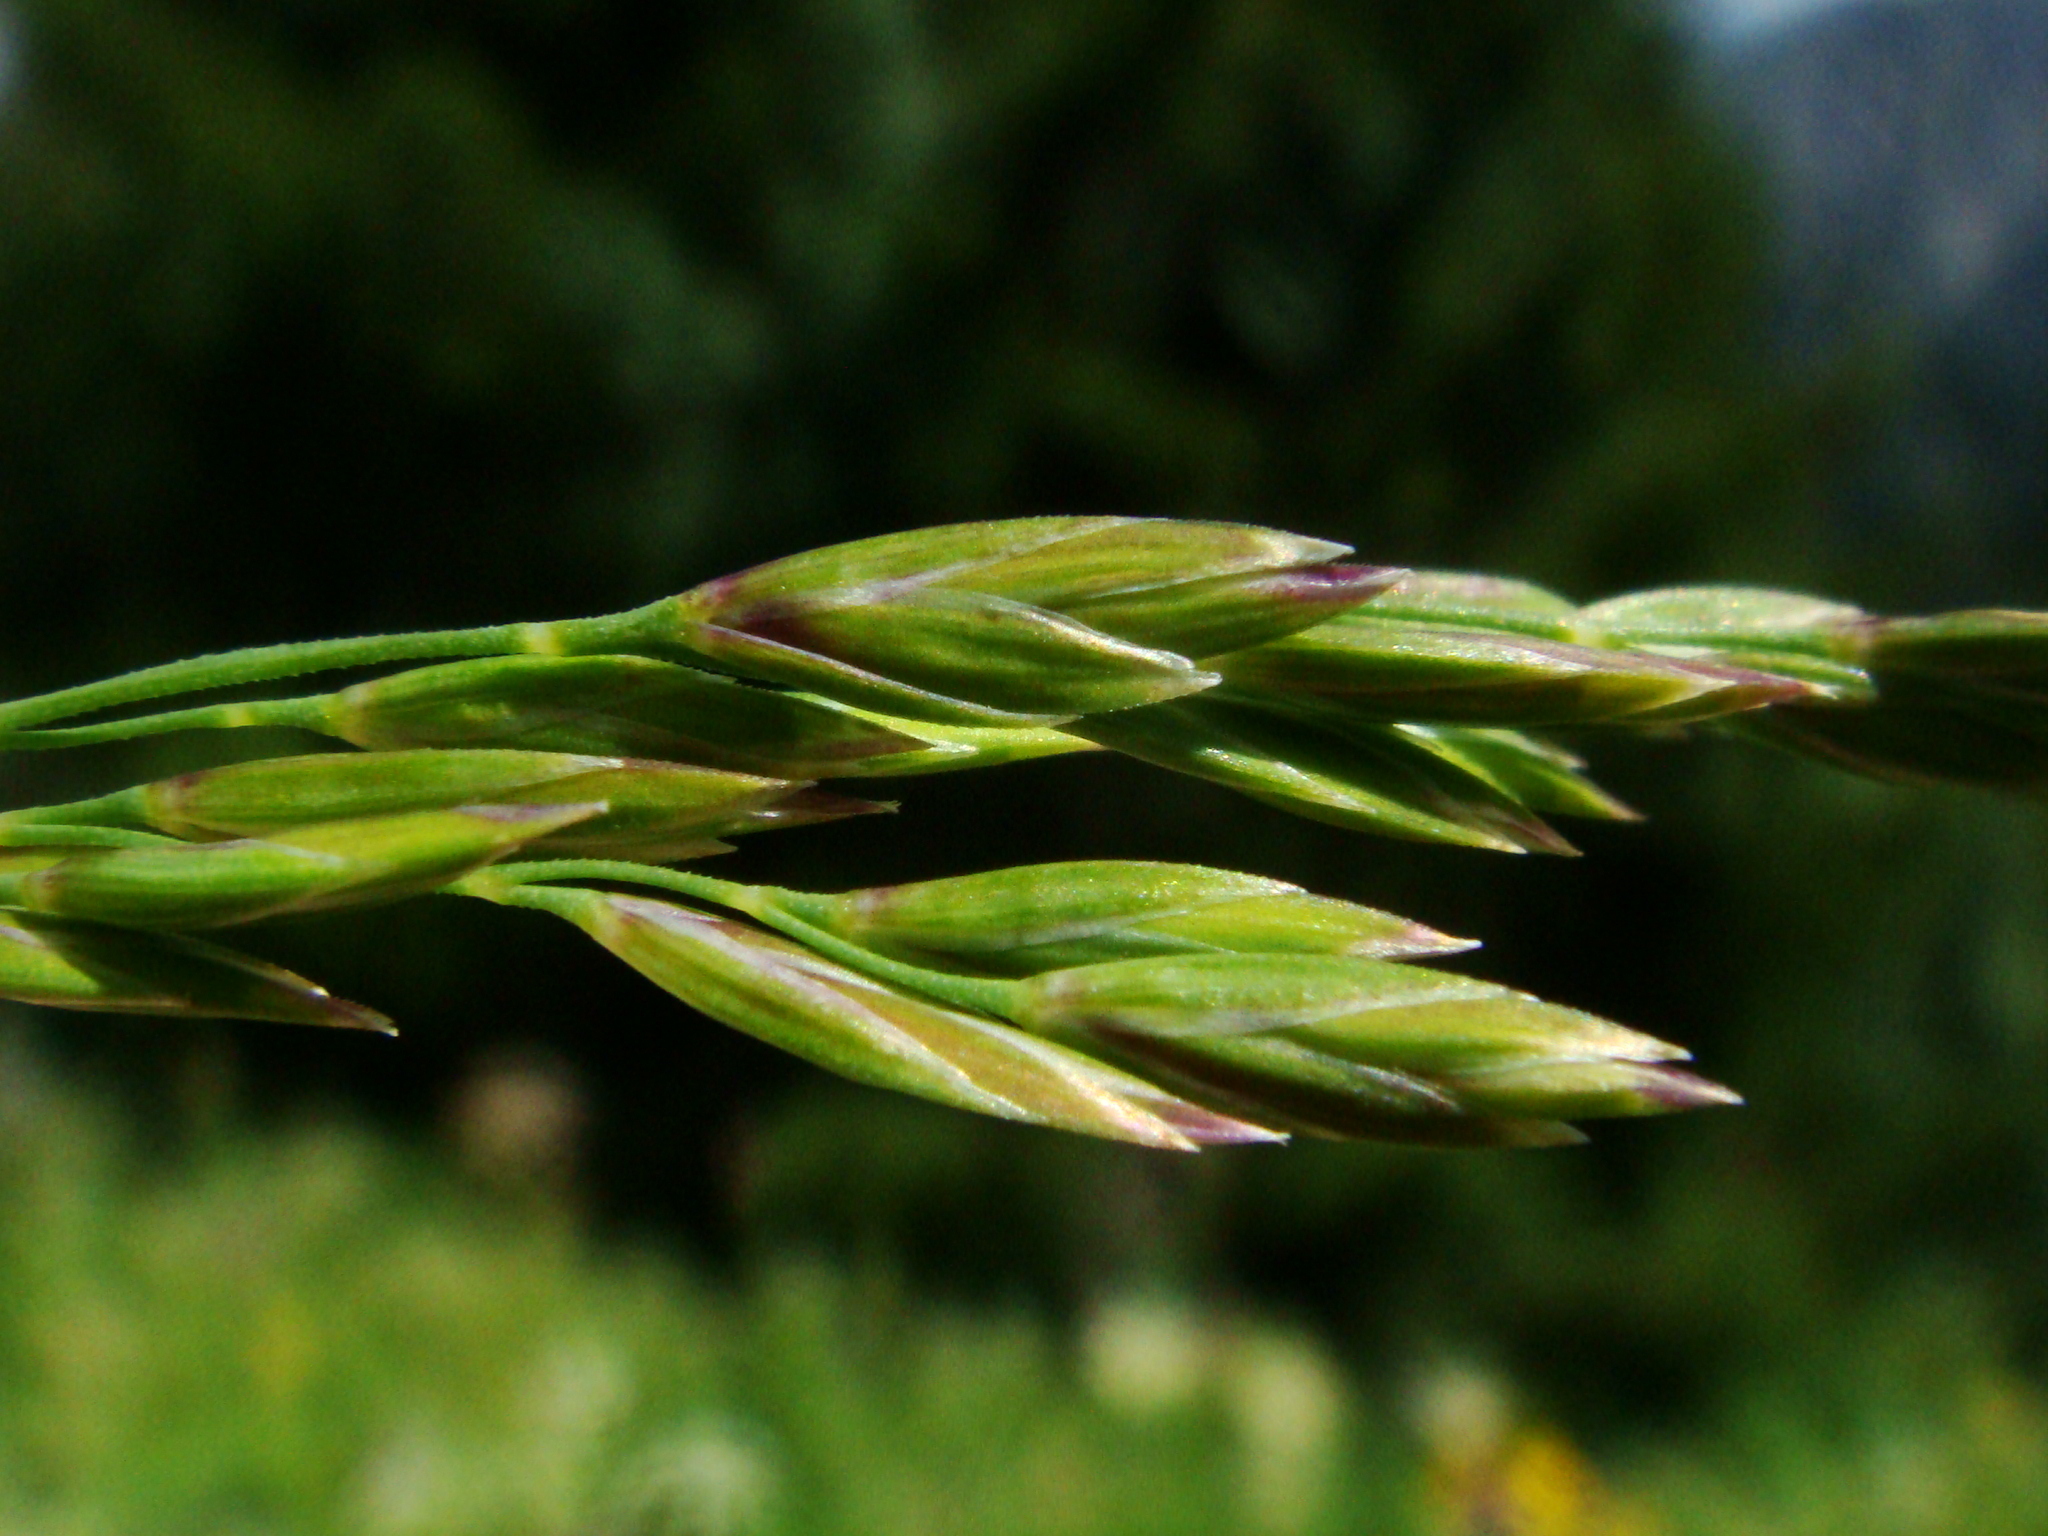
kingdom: Plantae
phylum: Tracheophyta
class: Liliopsida
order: Poales
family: Poaceae
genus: Poa
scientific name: Poa hybrida
